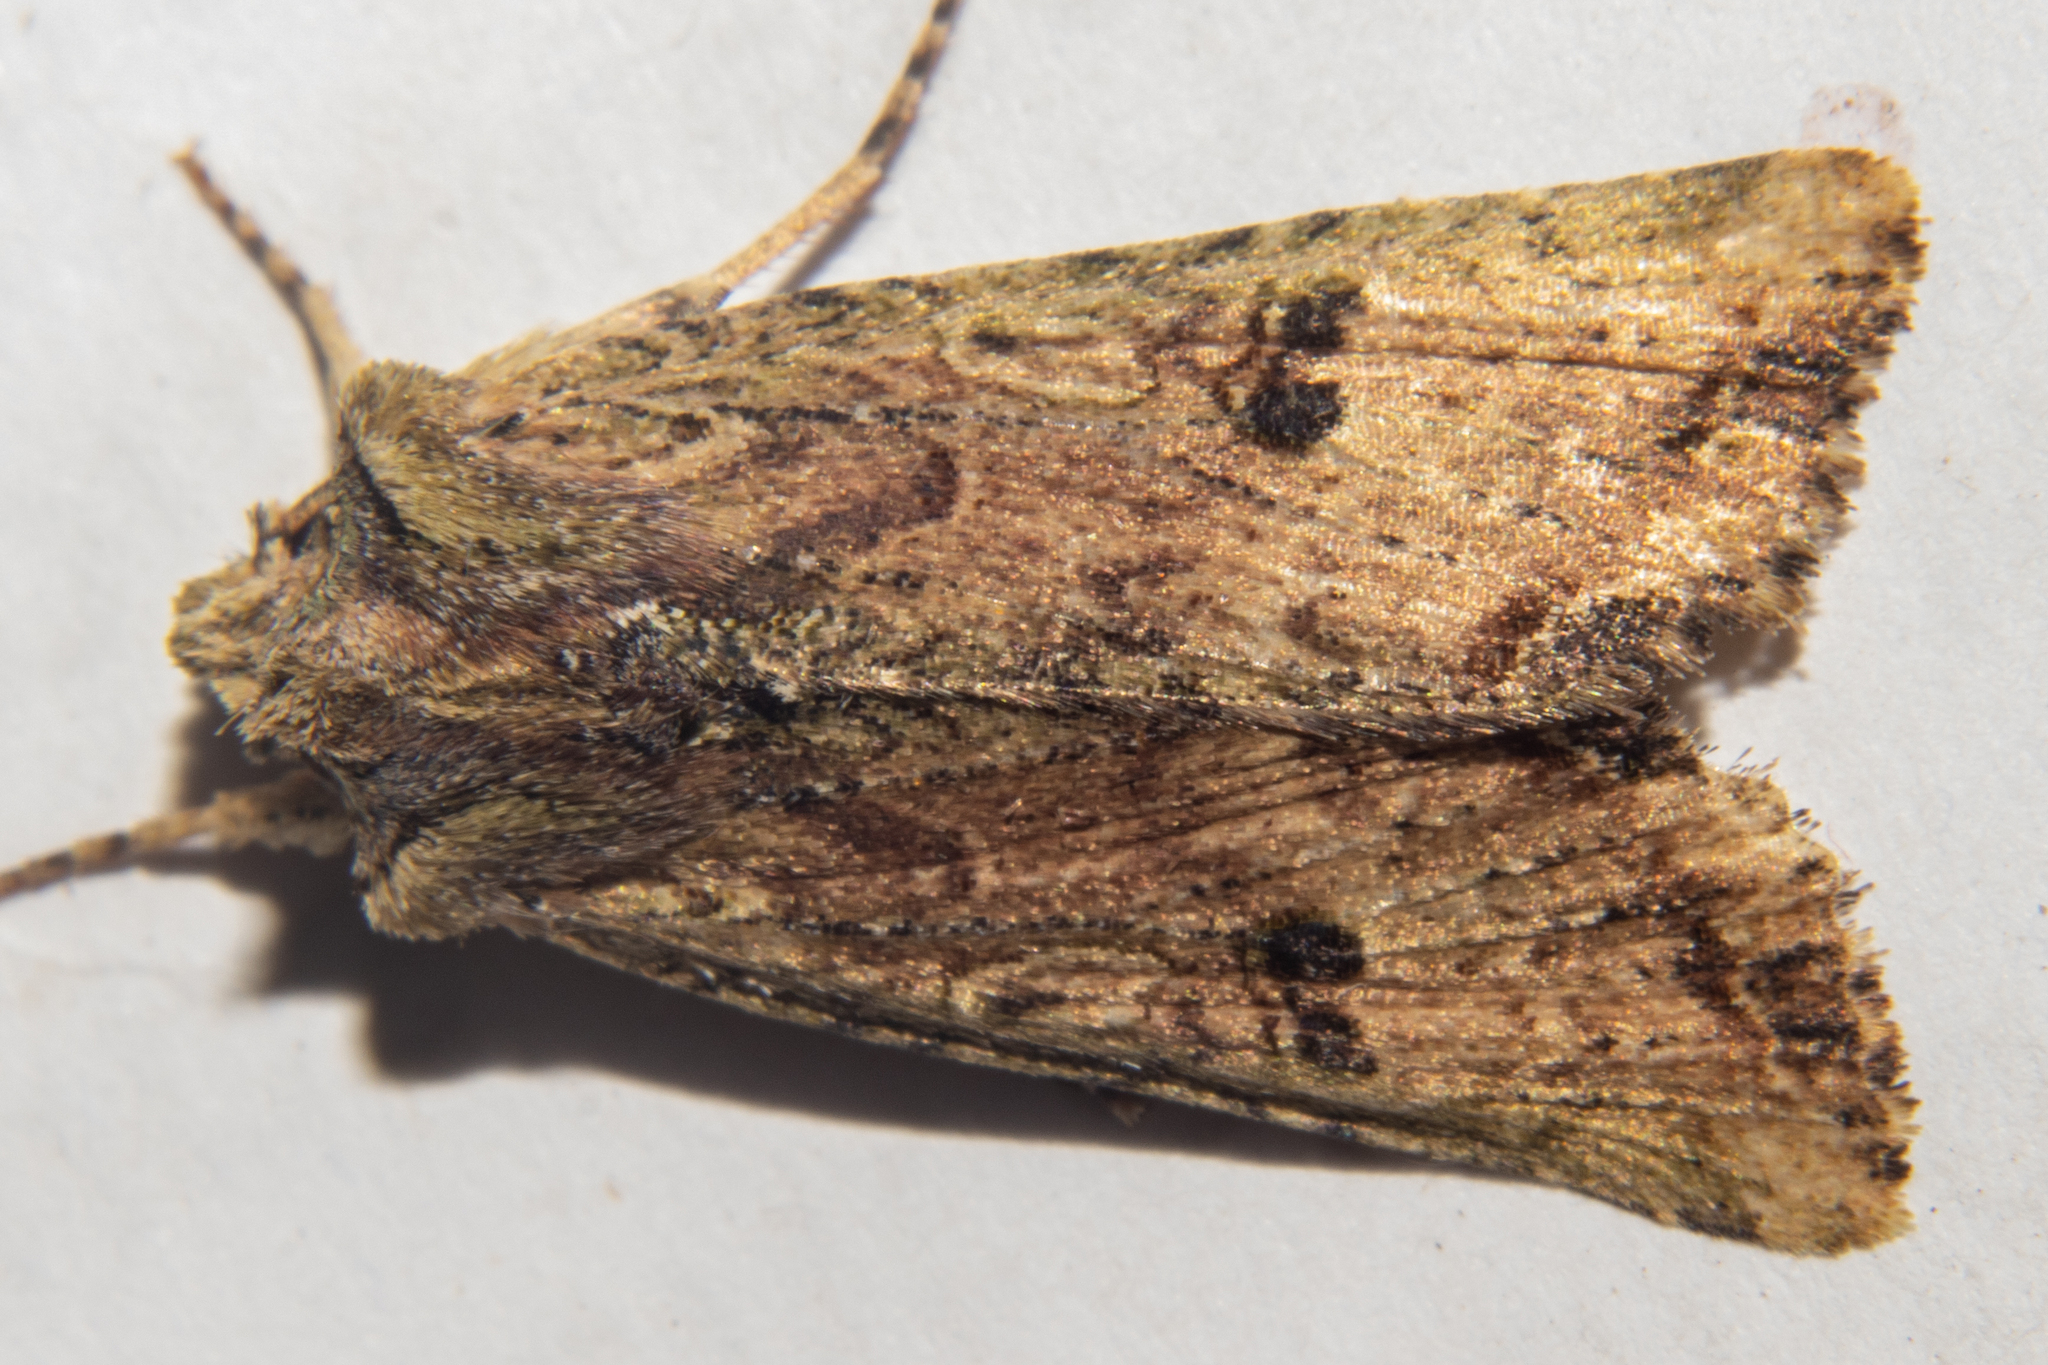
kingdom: Animalia
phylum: Arthropoda
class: Insecta
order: Lepidoptera
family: Noctuidae
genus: Meterana
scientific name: Meterana coeleno
